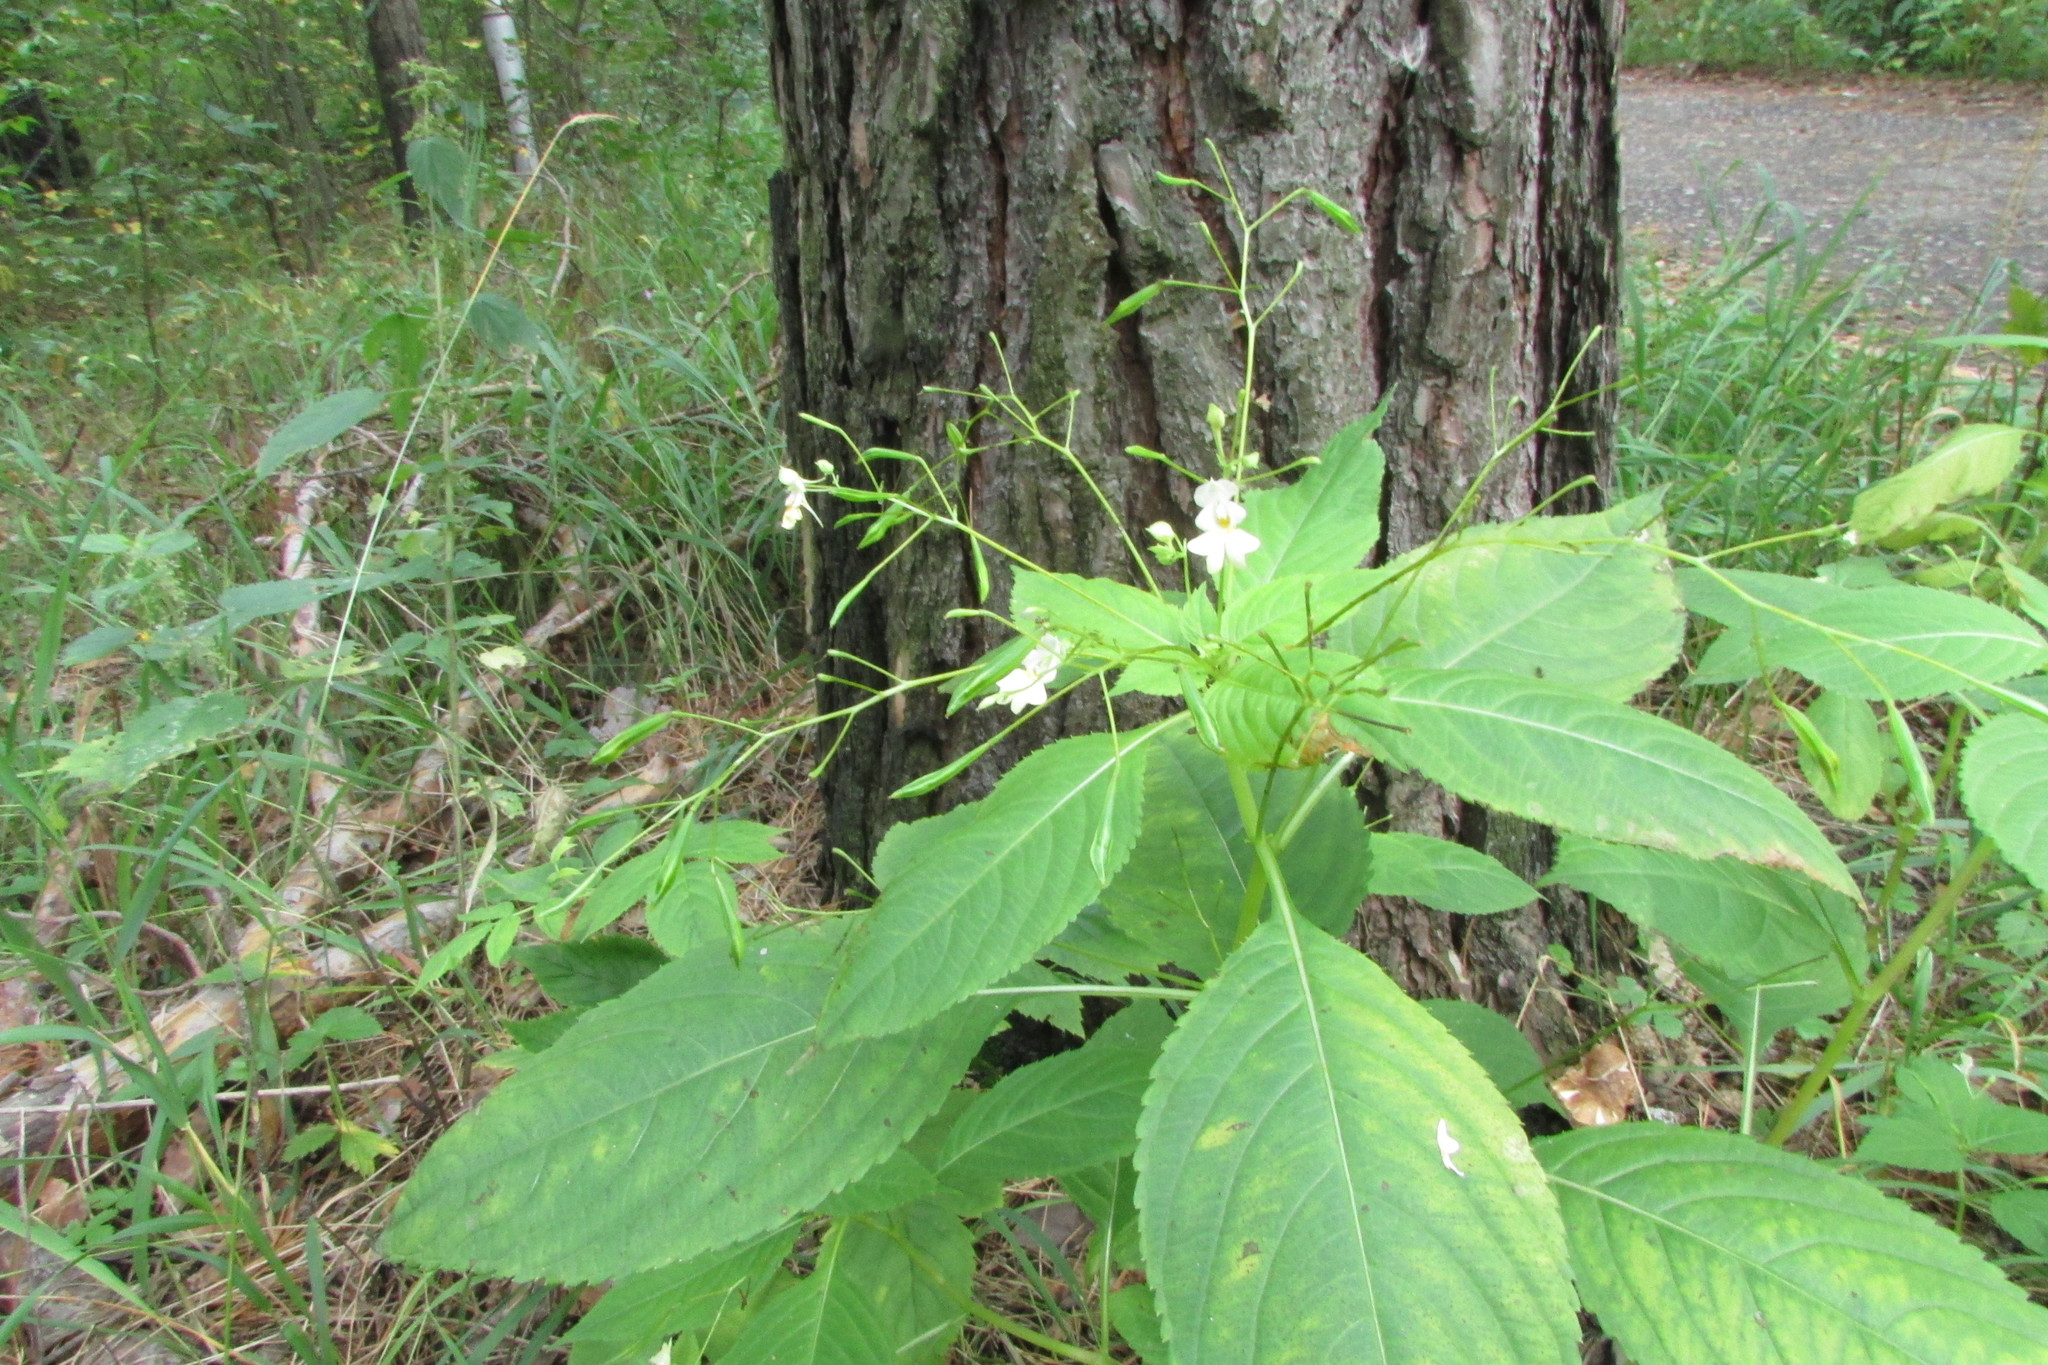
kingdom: Plantae
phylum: Tracheophyta
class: Magnoliopsida
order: Ericales
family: Balsaminaceae
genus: Impatiens
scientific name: Impatiens parviflora
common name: Small balsam
